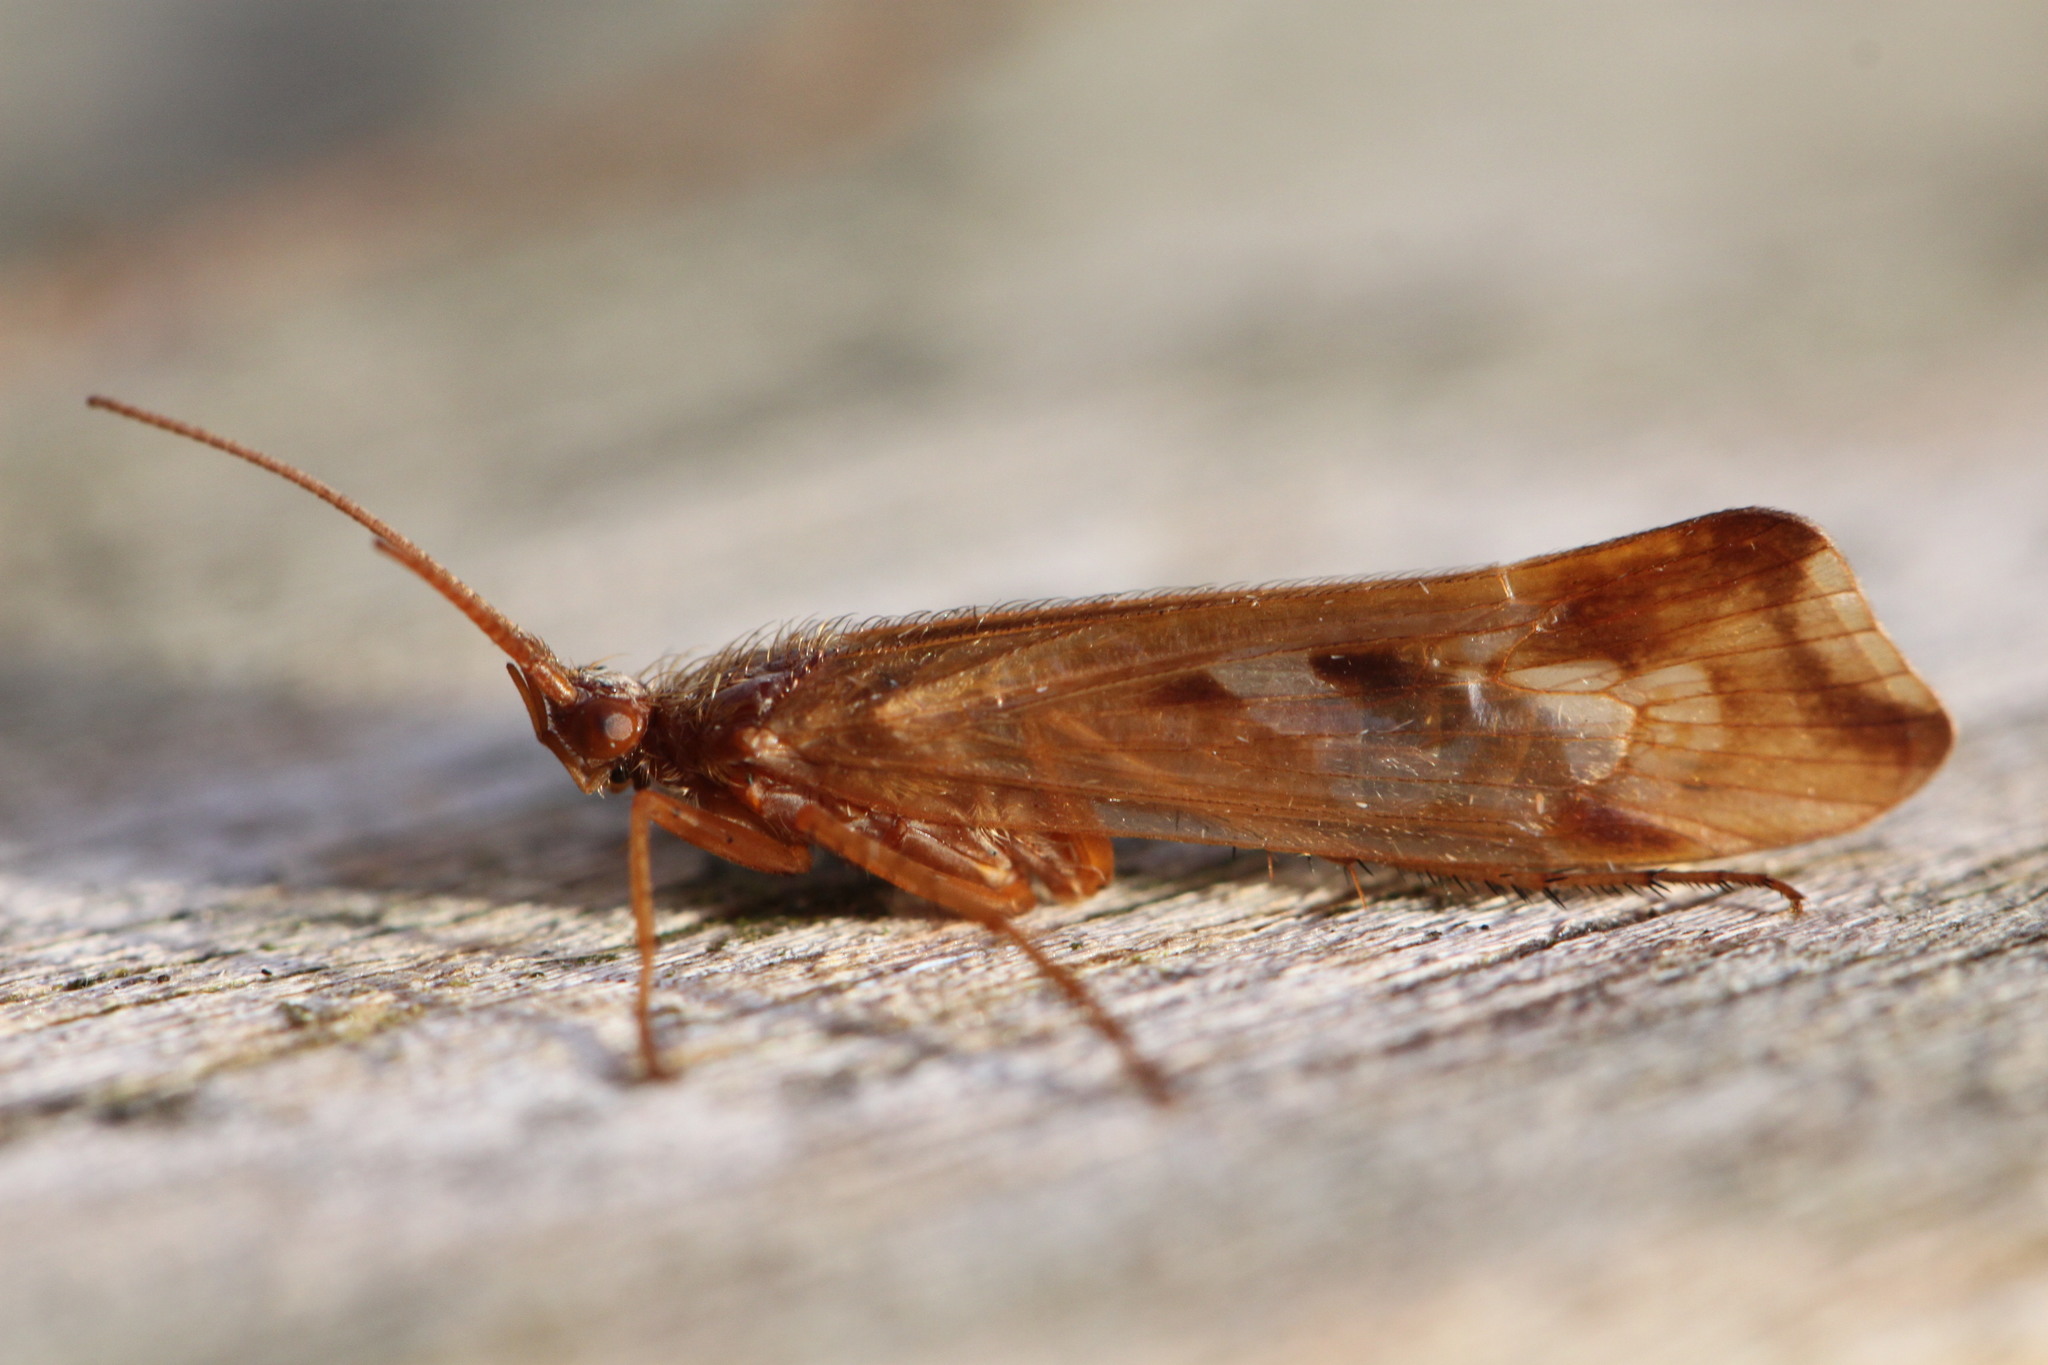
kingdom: Animalia
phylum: Arthropoda
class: Insecta
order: Trichoptera
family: Limnephilidae
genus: Limnephilus
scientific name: Limnephilus lunatus
